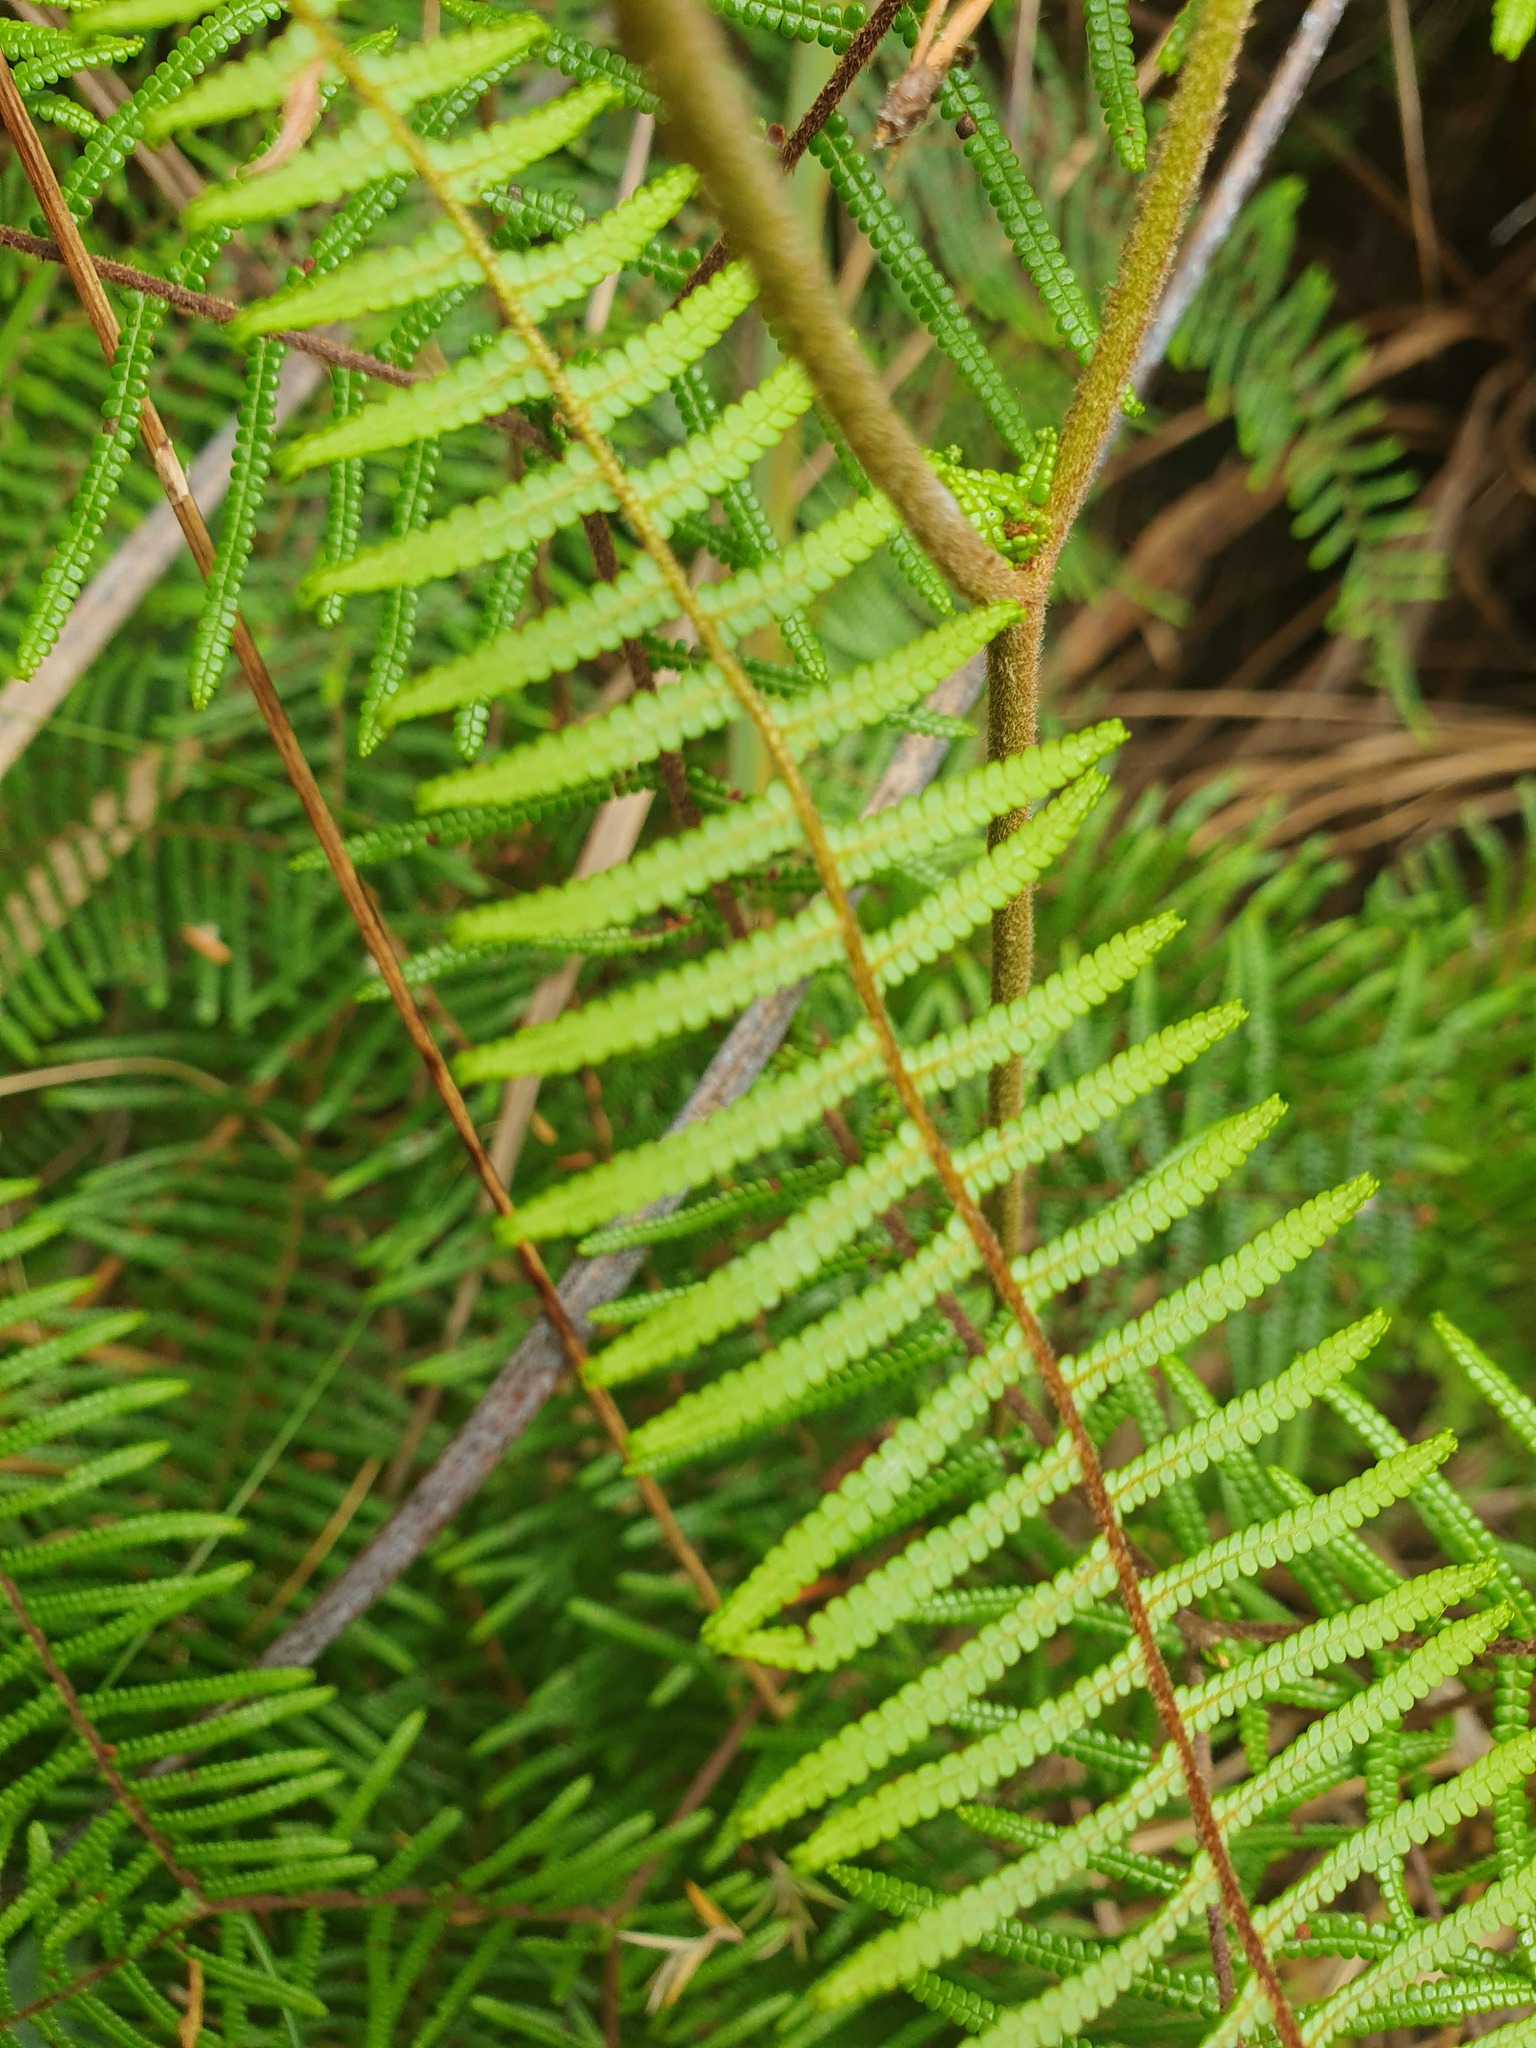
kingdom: Plantae
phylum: Tracheophyta
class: Polypodiopsida
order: Gleicheniales
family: Gleicheniaceae
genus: Gleichenia
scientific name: Gleichenia microphylla
